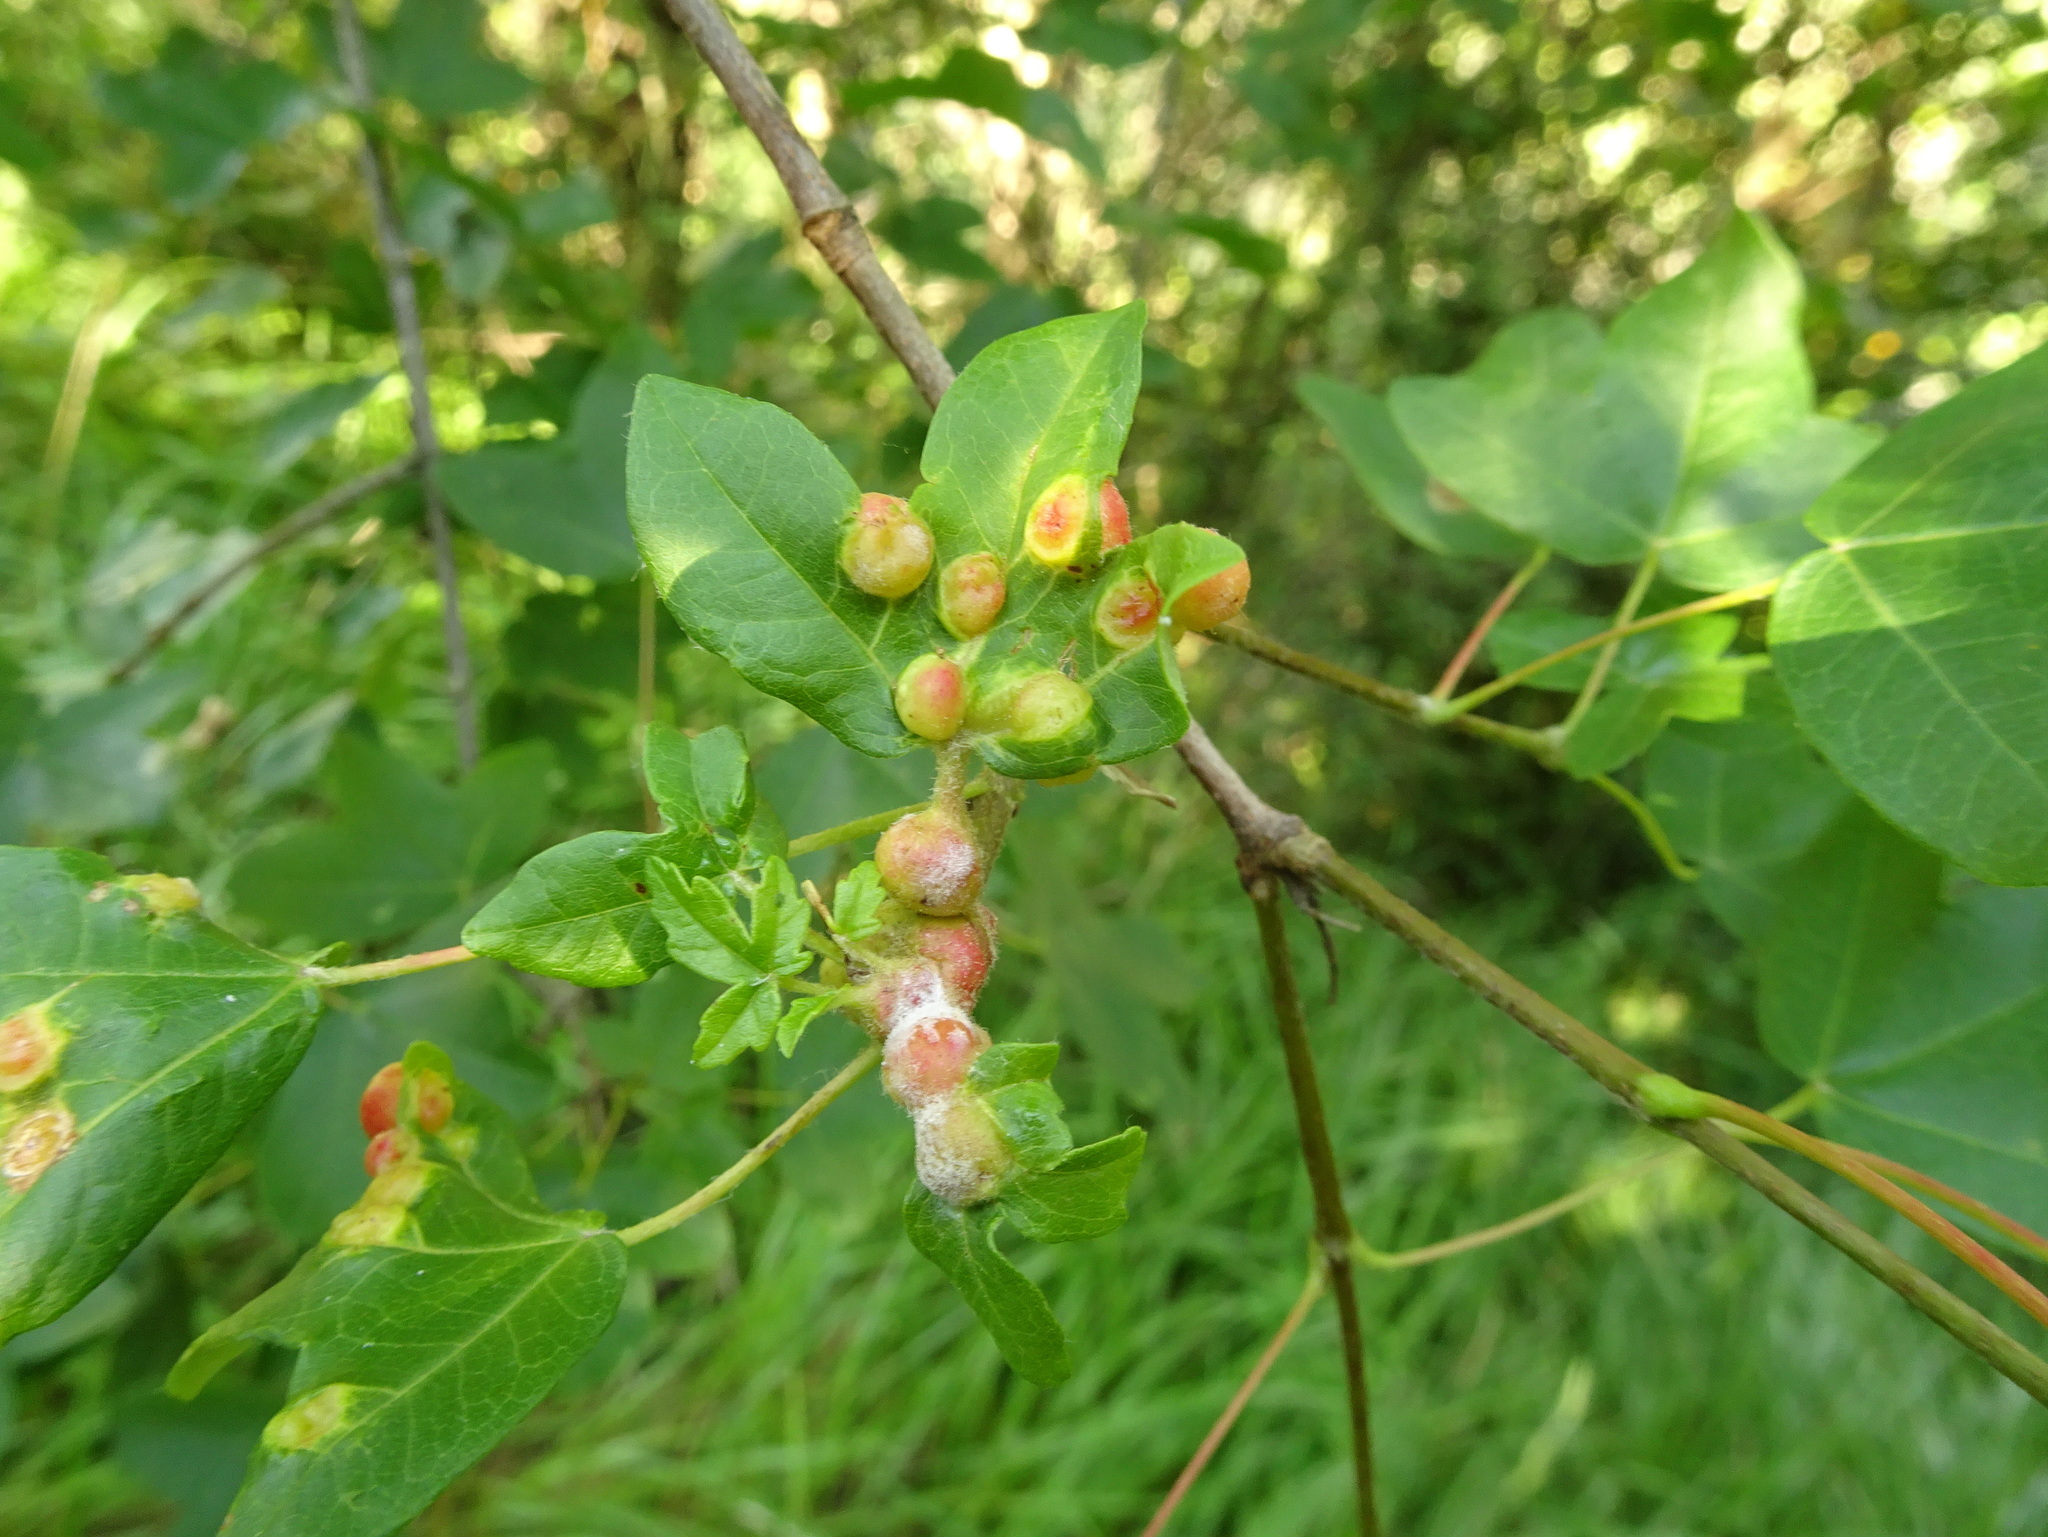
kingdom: Animalia
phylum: Arthropoda
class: Insecta
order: Hymenoptera
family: Cynipidae
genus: Pediaspis
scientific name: Pediaspis aceris
